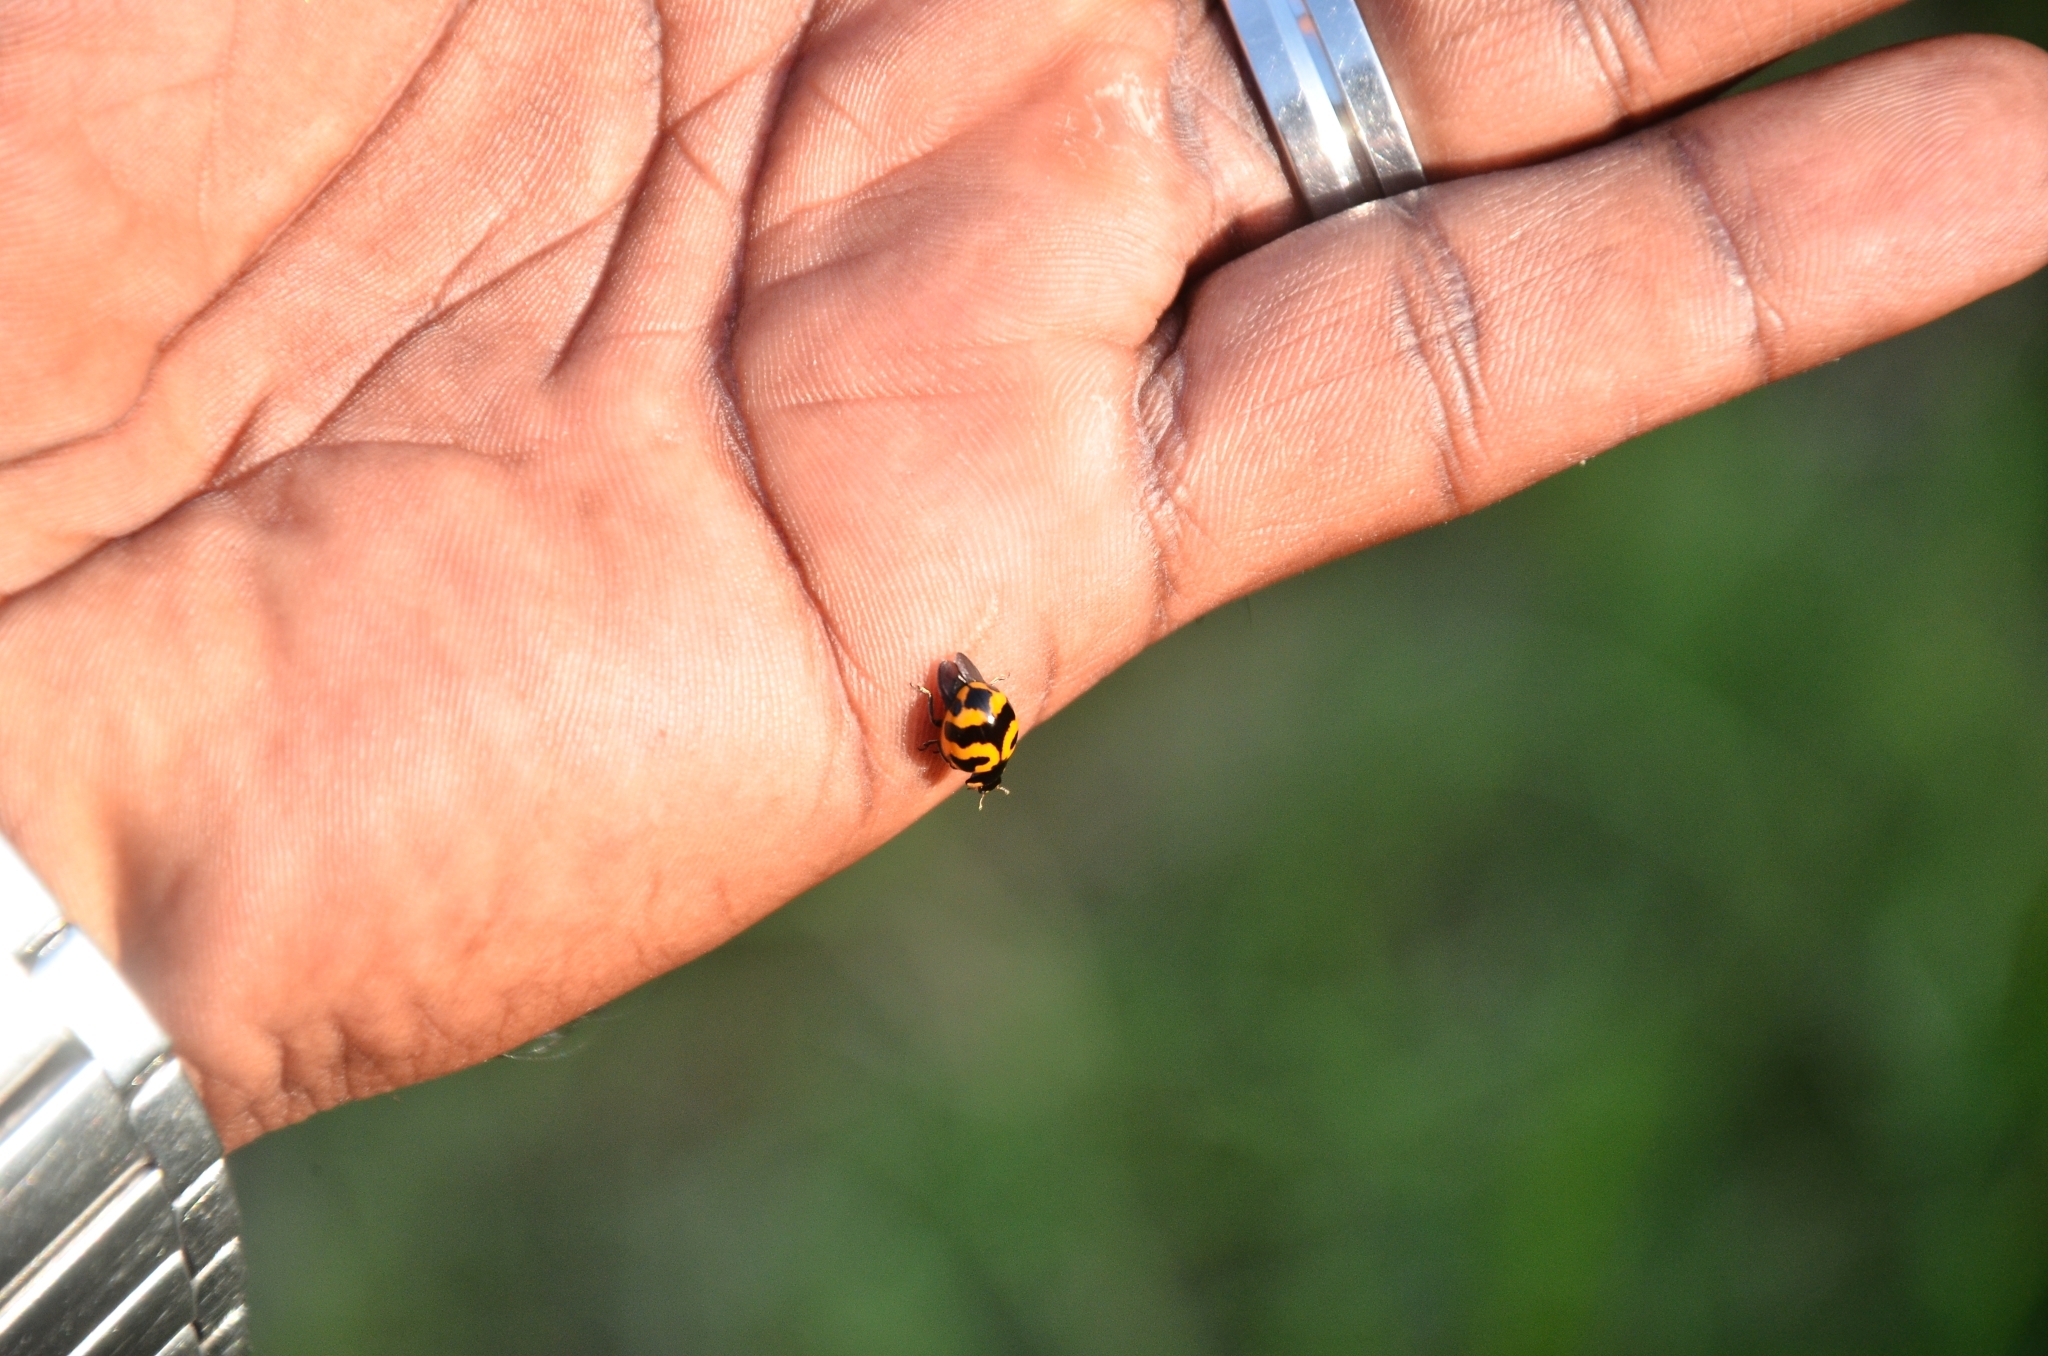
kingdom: Animalia
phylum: Arthropoda
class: Insecta
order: Coleoptera
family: Coccinellidae
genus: Coccinella
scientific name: Coccinella transversalis
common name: Transverse lady beetle
